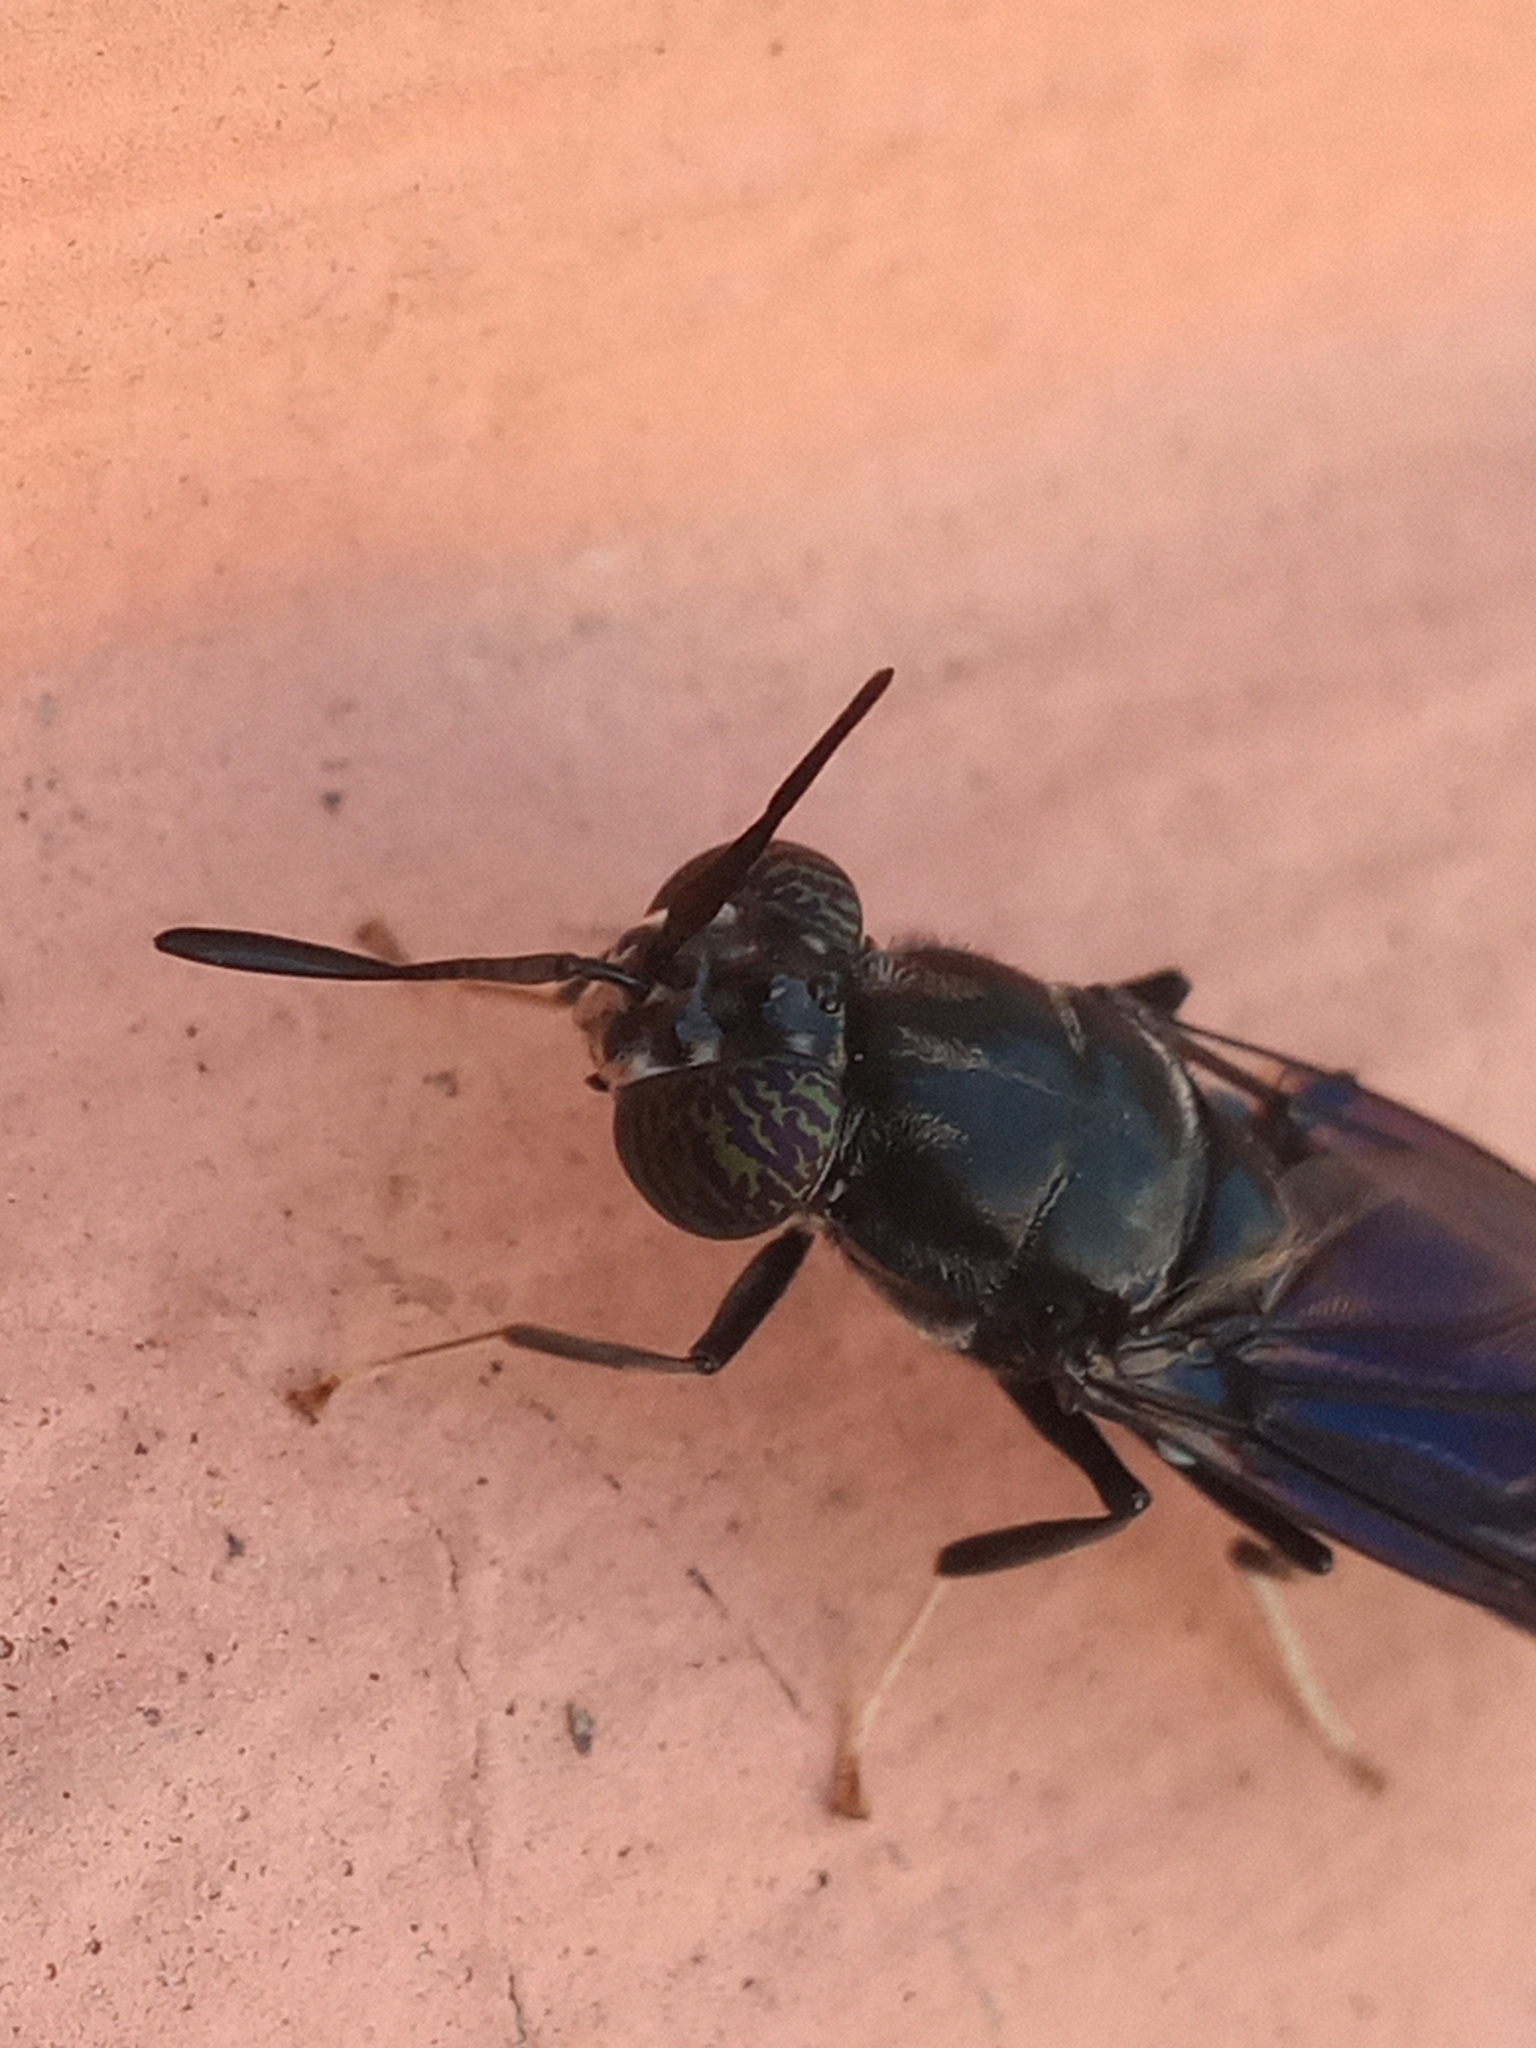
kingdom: Animalia
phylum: Arthropoda
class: Insecta
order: Diptera
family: Stratiomyidae
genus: Hermetia
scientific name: Hermetia illucens
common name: Black soldier fly
